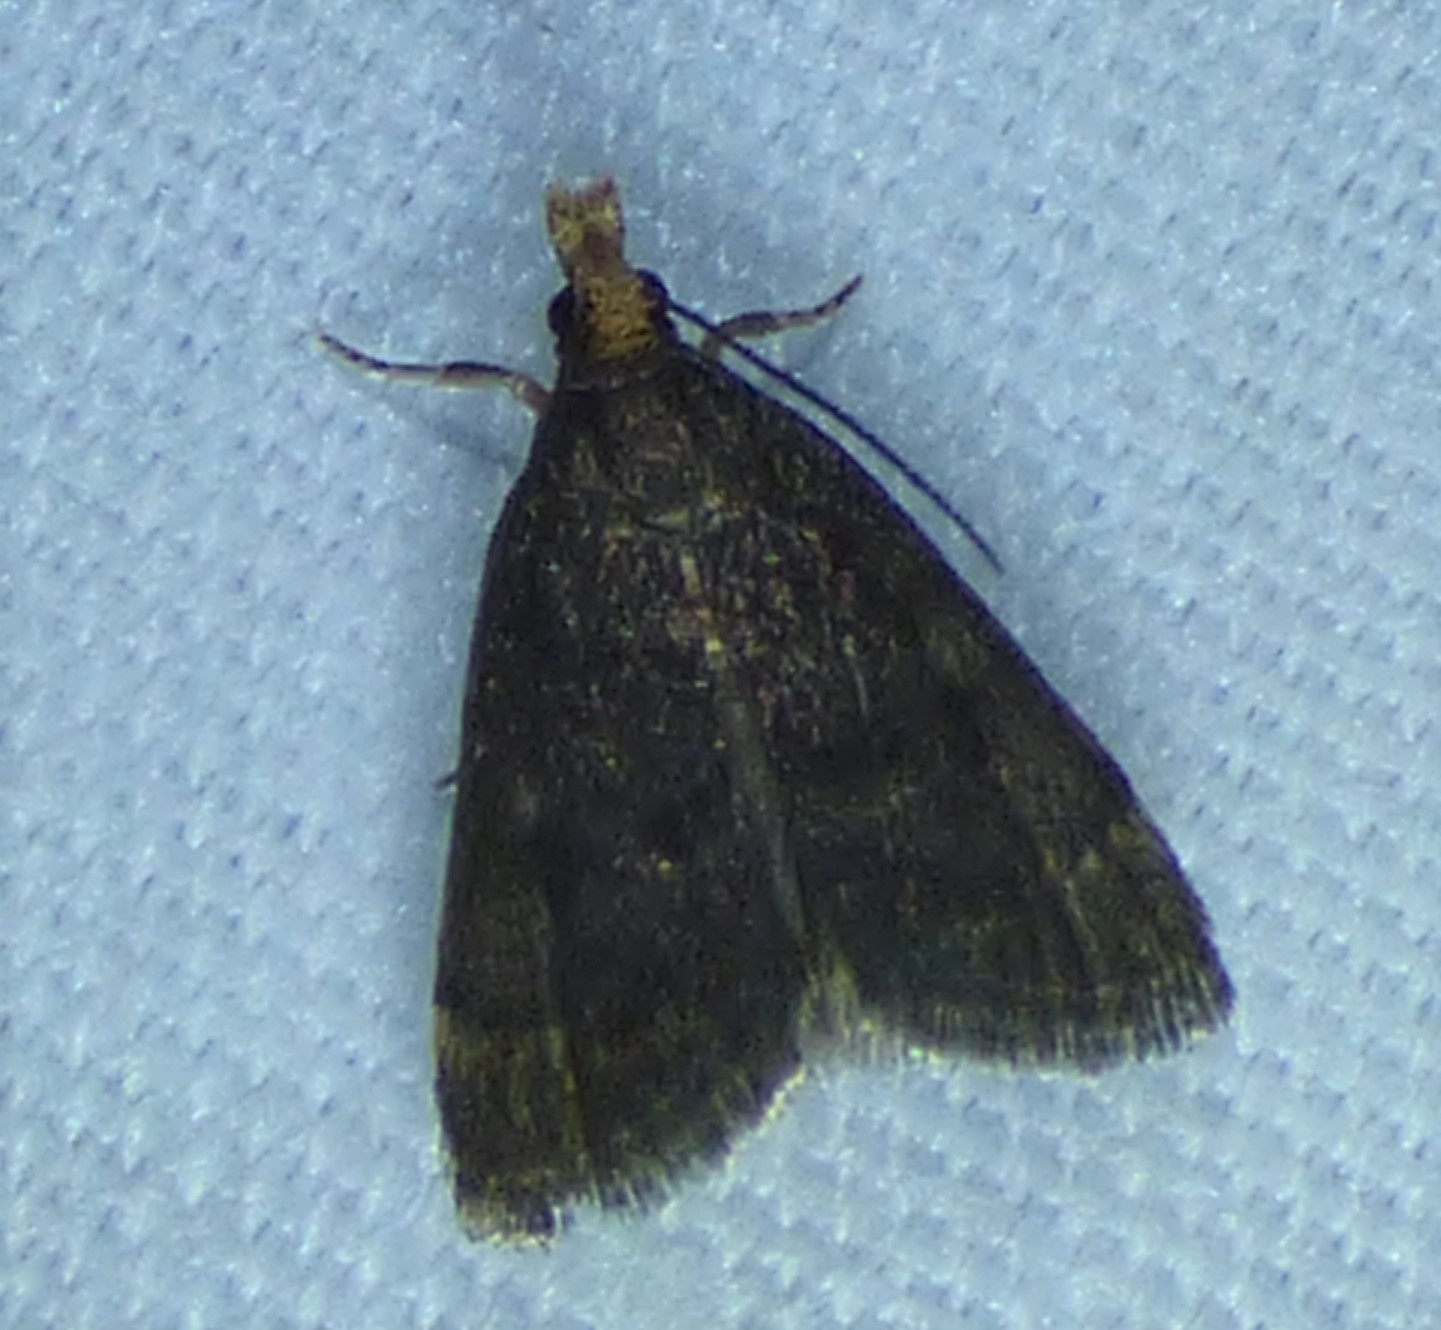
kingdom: Animalia
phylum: Arthropoda
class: Insecta
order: Lepidoptera
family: Crambidae
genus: Pyrausta
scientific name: Pyrausta merrickalis
